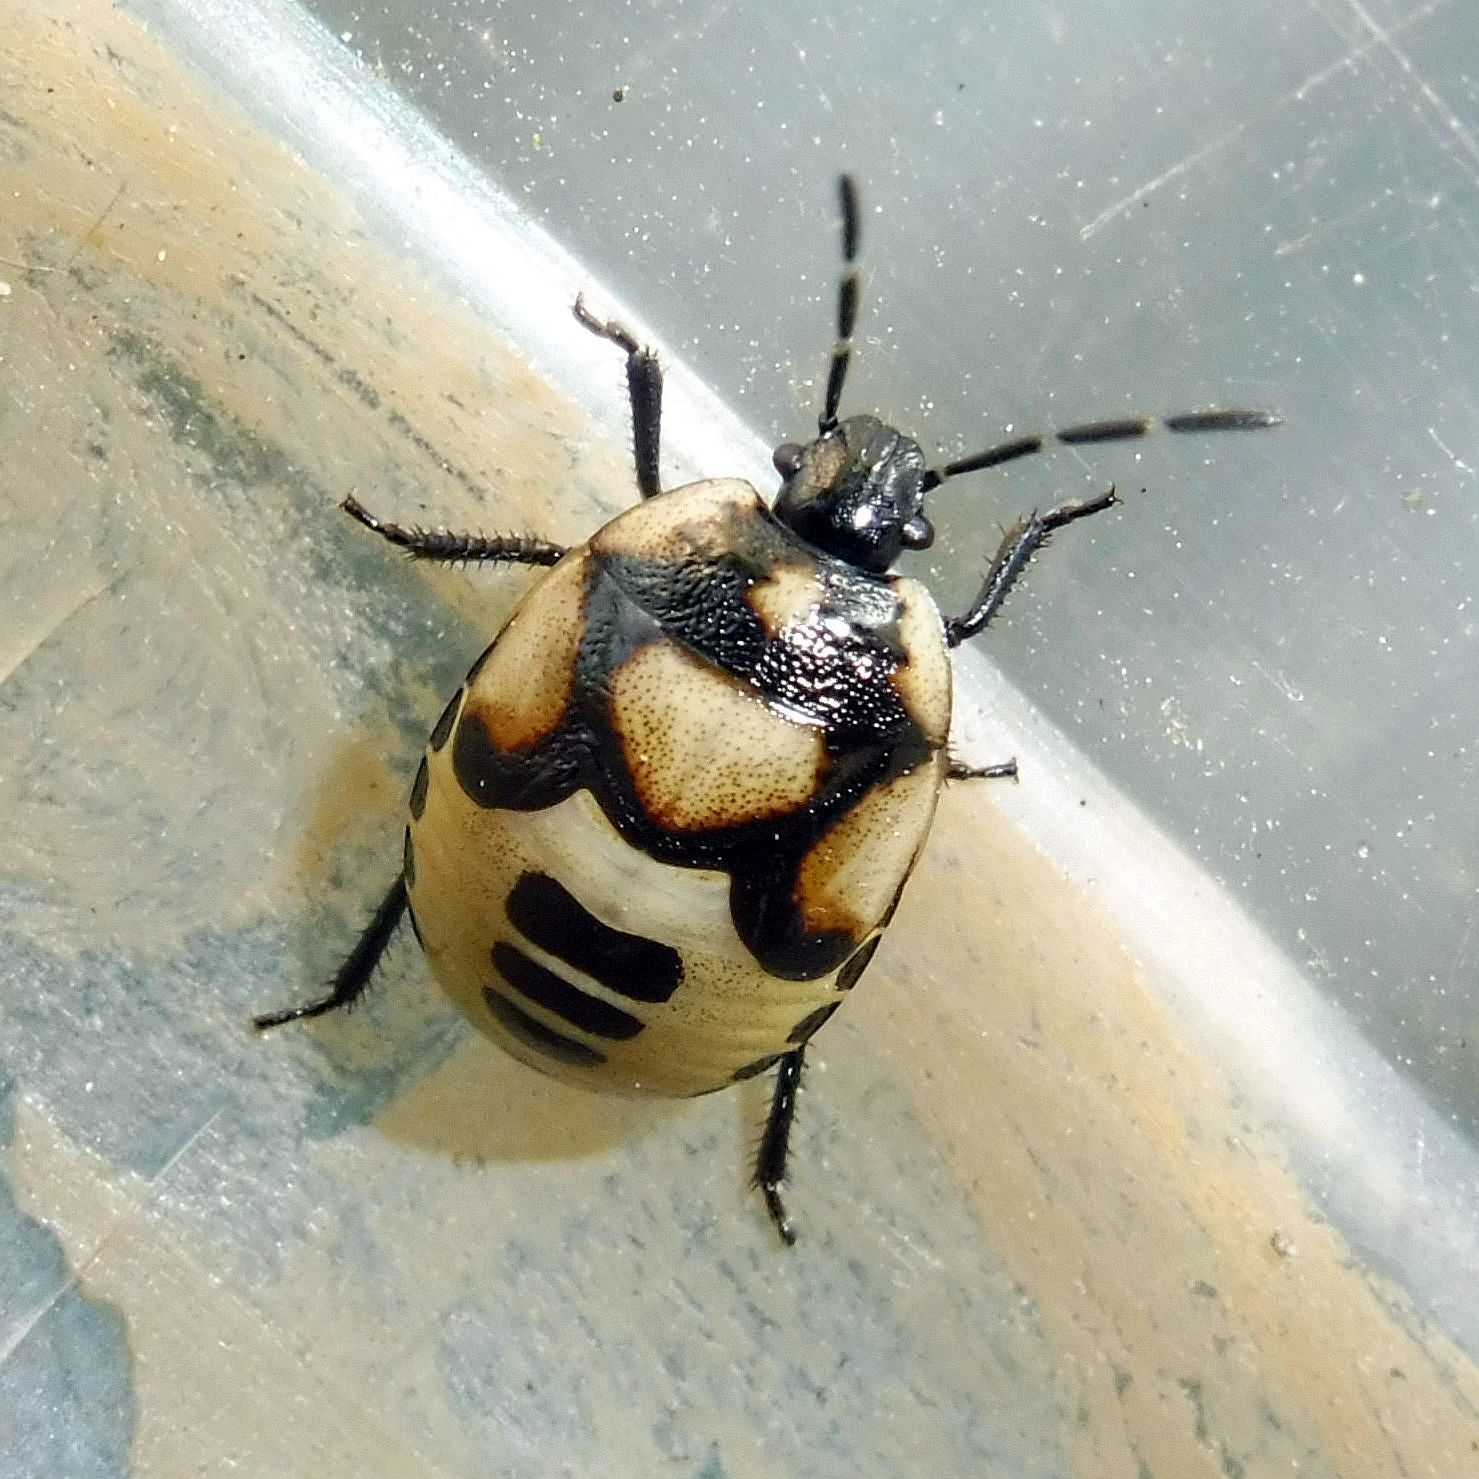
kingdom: Animalia
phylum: Arthropoda
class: Insecta
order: Hemiptera
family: Cydnidae
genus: Tritomegas
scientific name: Tritomegas bicolor
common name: Pied shieldbug
